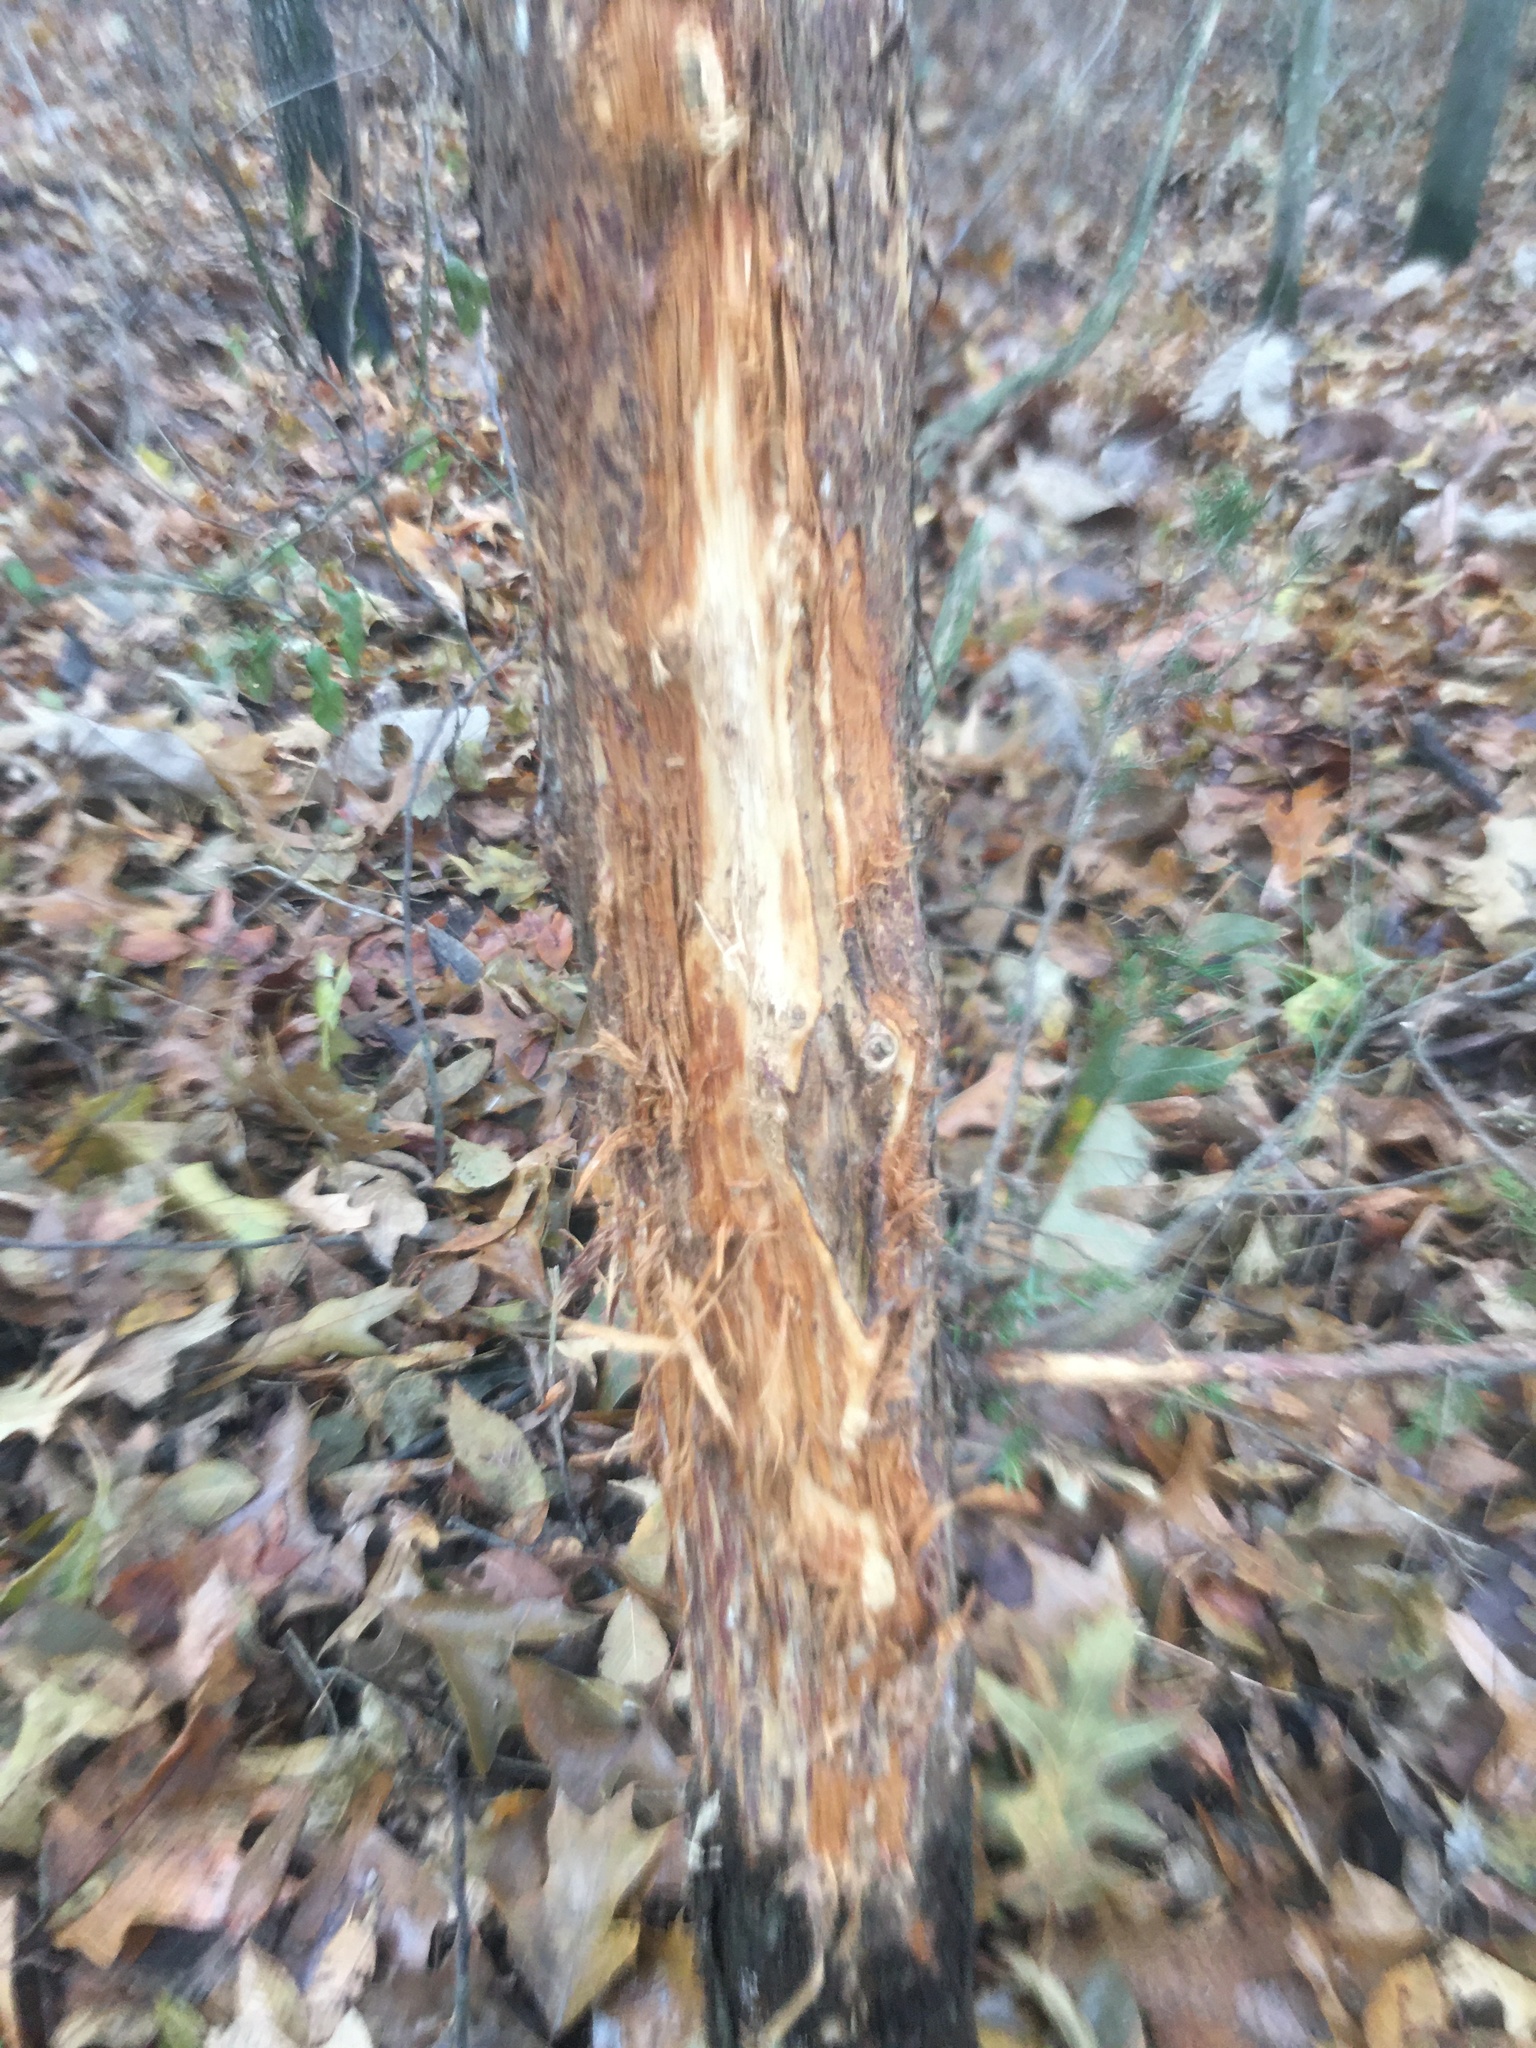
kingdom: Animalia
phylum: Chordata
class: Mammalia
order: Artiodactyla
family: Cervidae
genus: Odocoileus
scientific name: Odocoileus virginianus
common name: White-tailed deer
